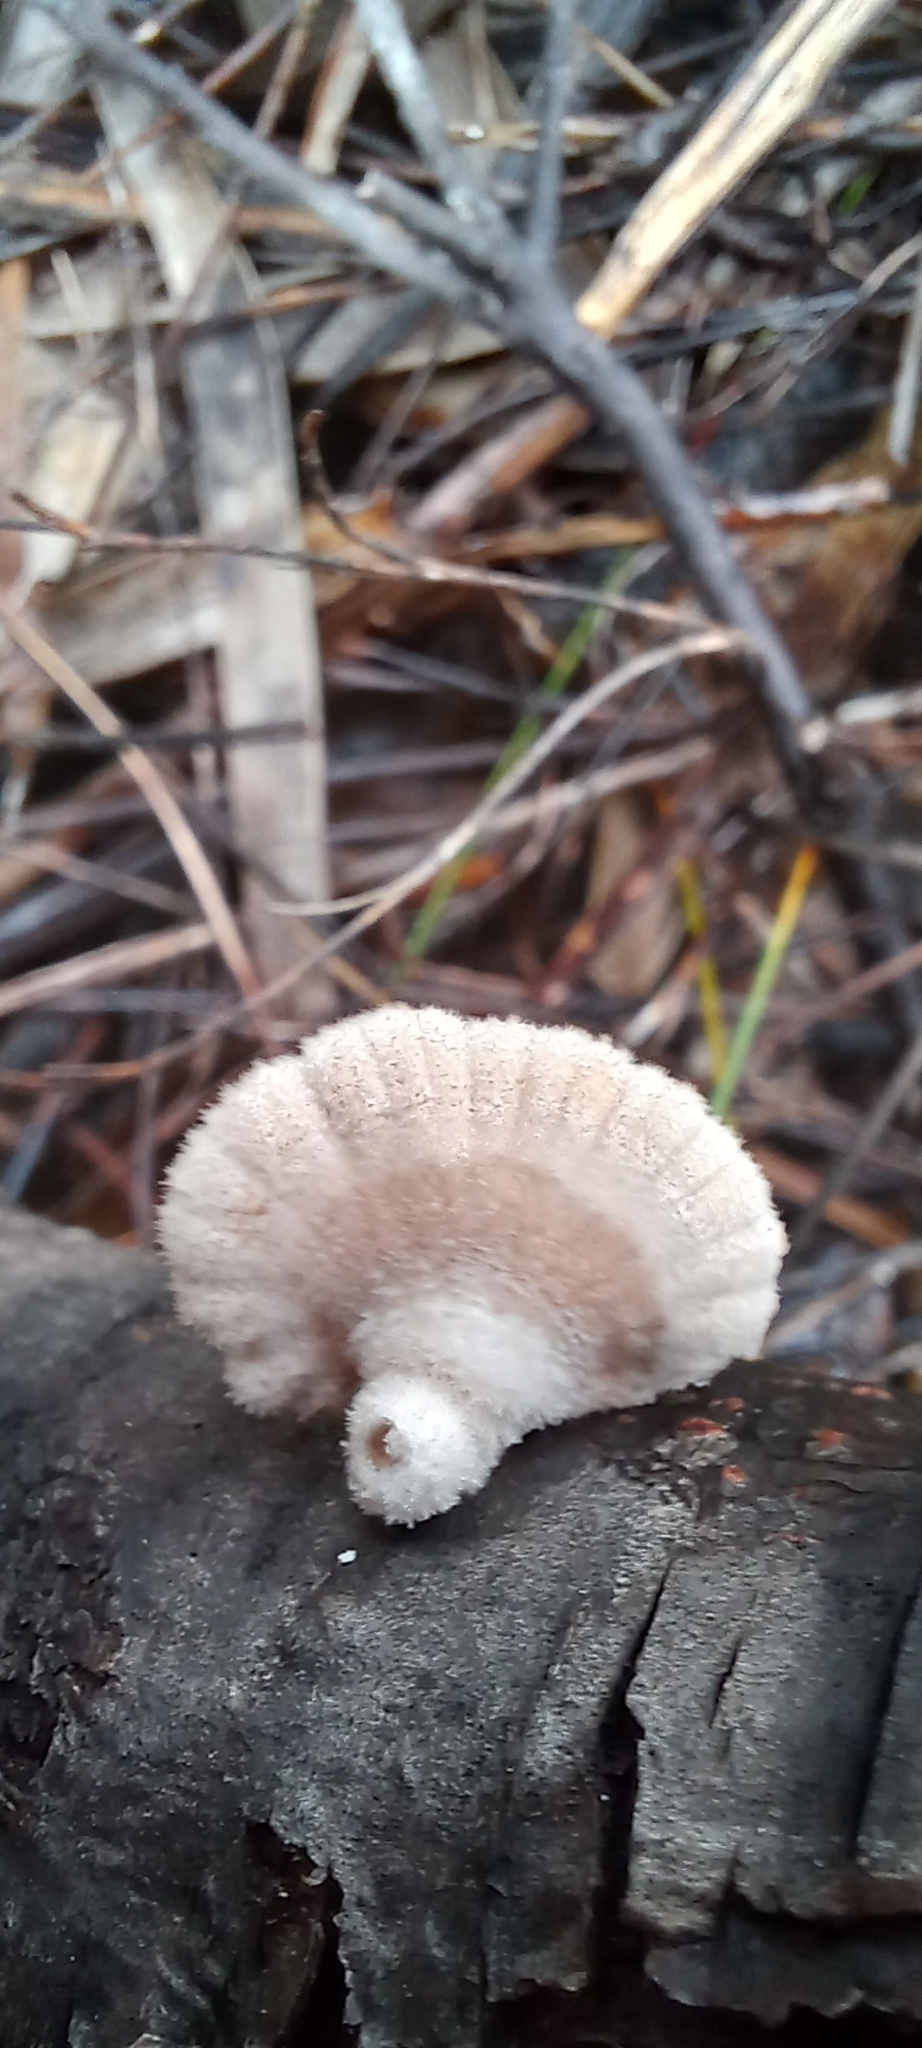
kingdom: Fungi
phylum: Basidiomycota
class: Agaricomycetes
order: Agaricales
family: Schizophyllaceae
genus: Schizophyllum
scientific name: Schizophyllum commune
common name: Common porecrust
